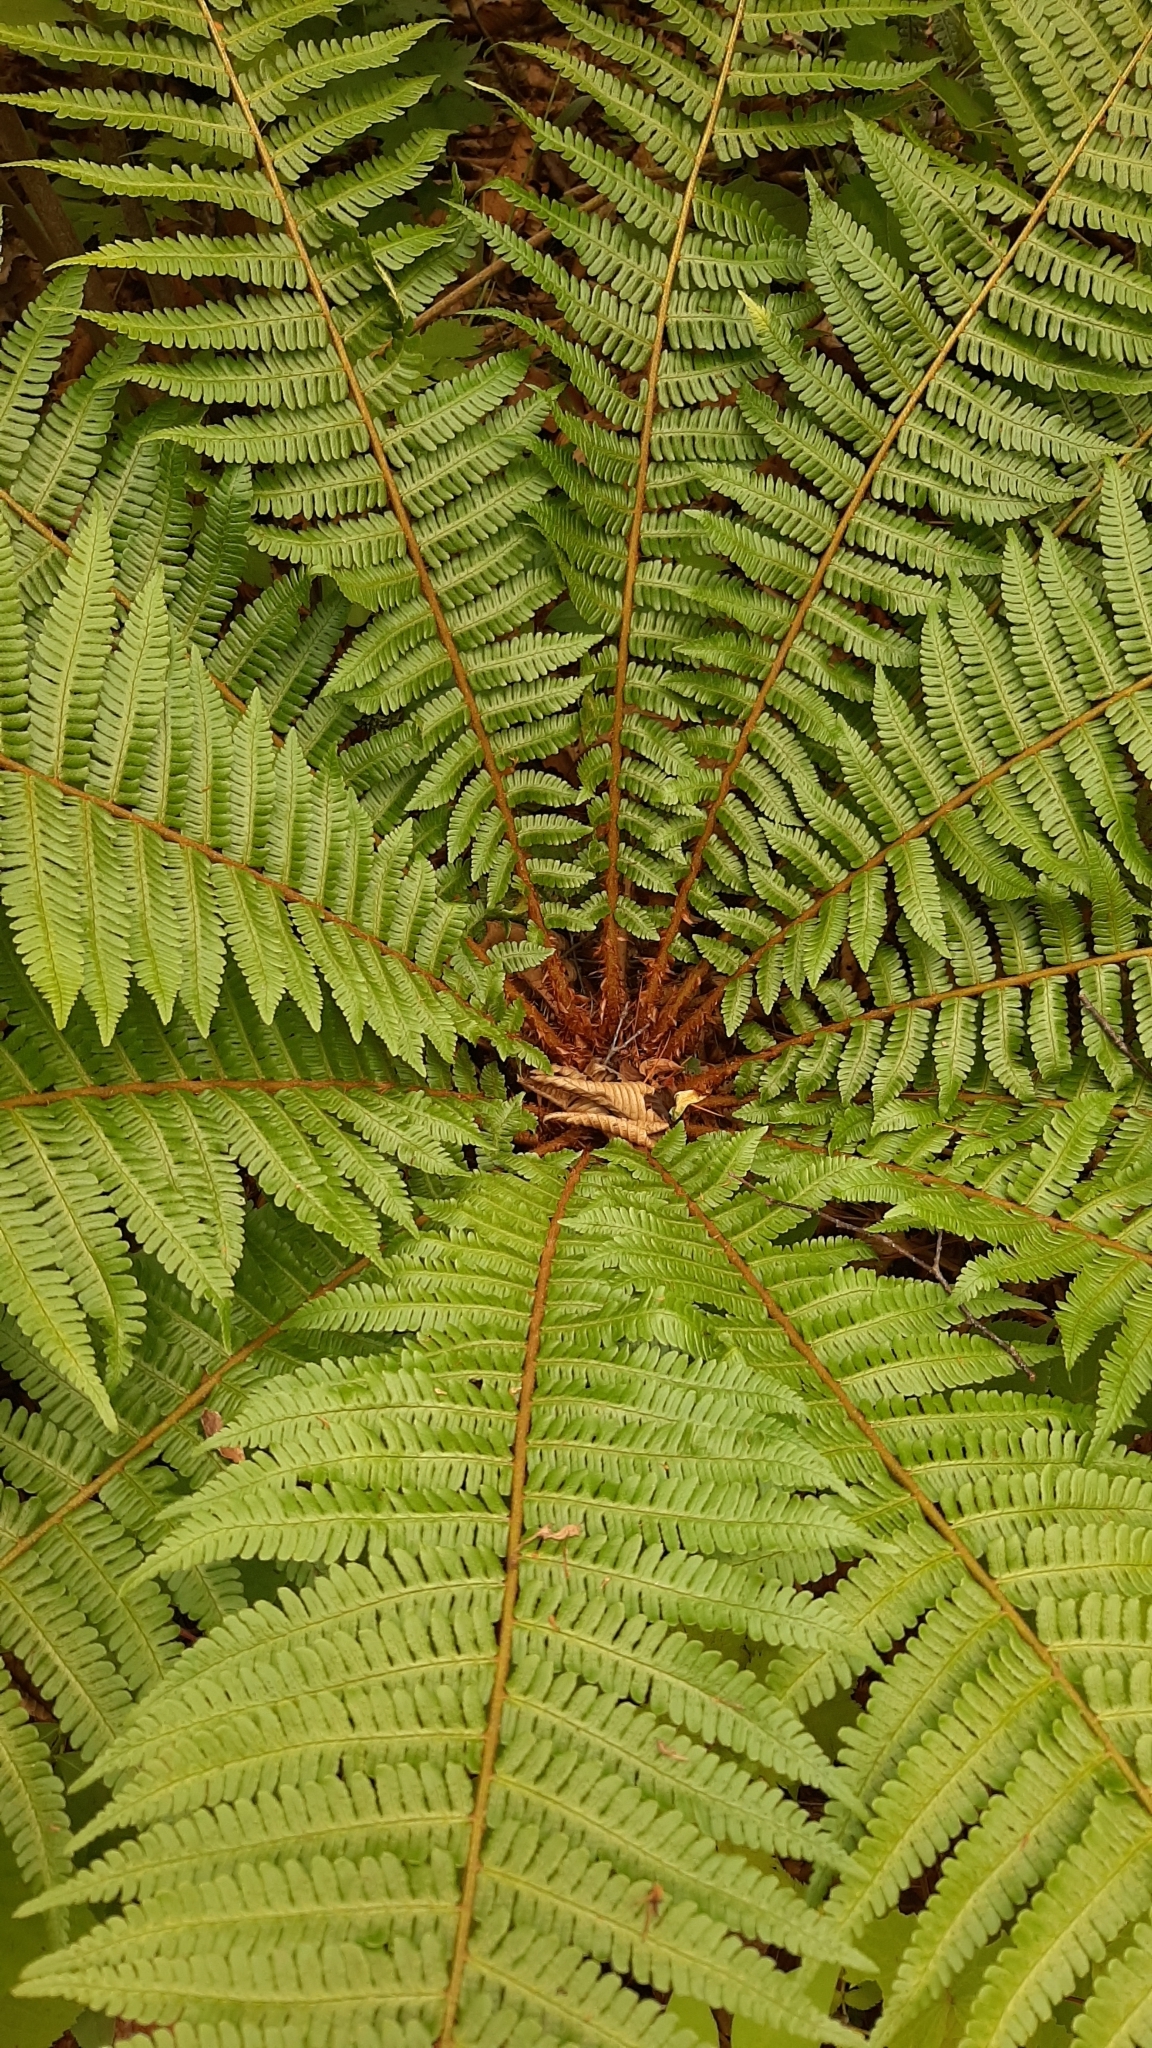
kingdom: Plantae
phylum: Tracheophyta
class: Polypodiopsida
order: Polypodiales
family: Dryopteridaceae
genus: Dryopteris
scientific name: Dryopteris crassirhizoma
